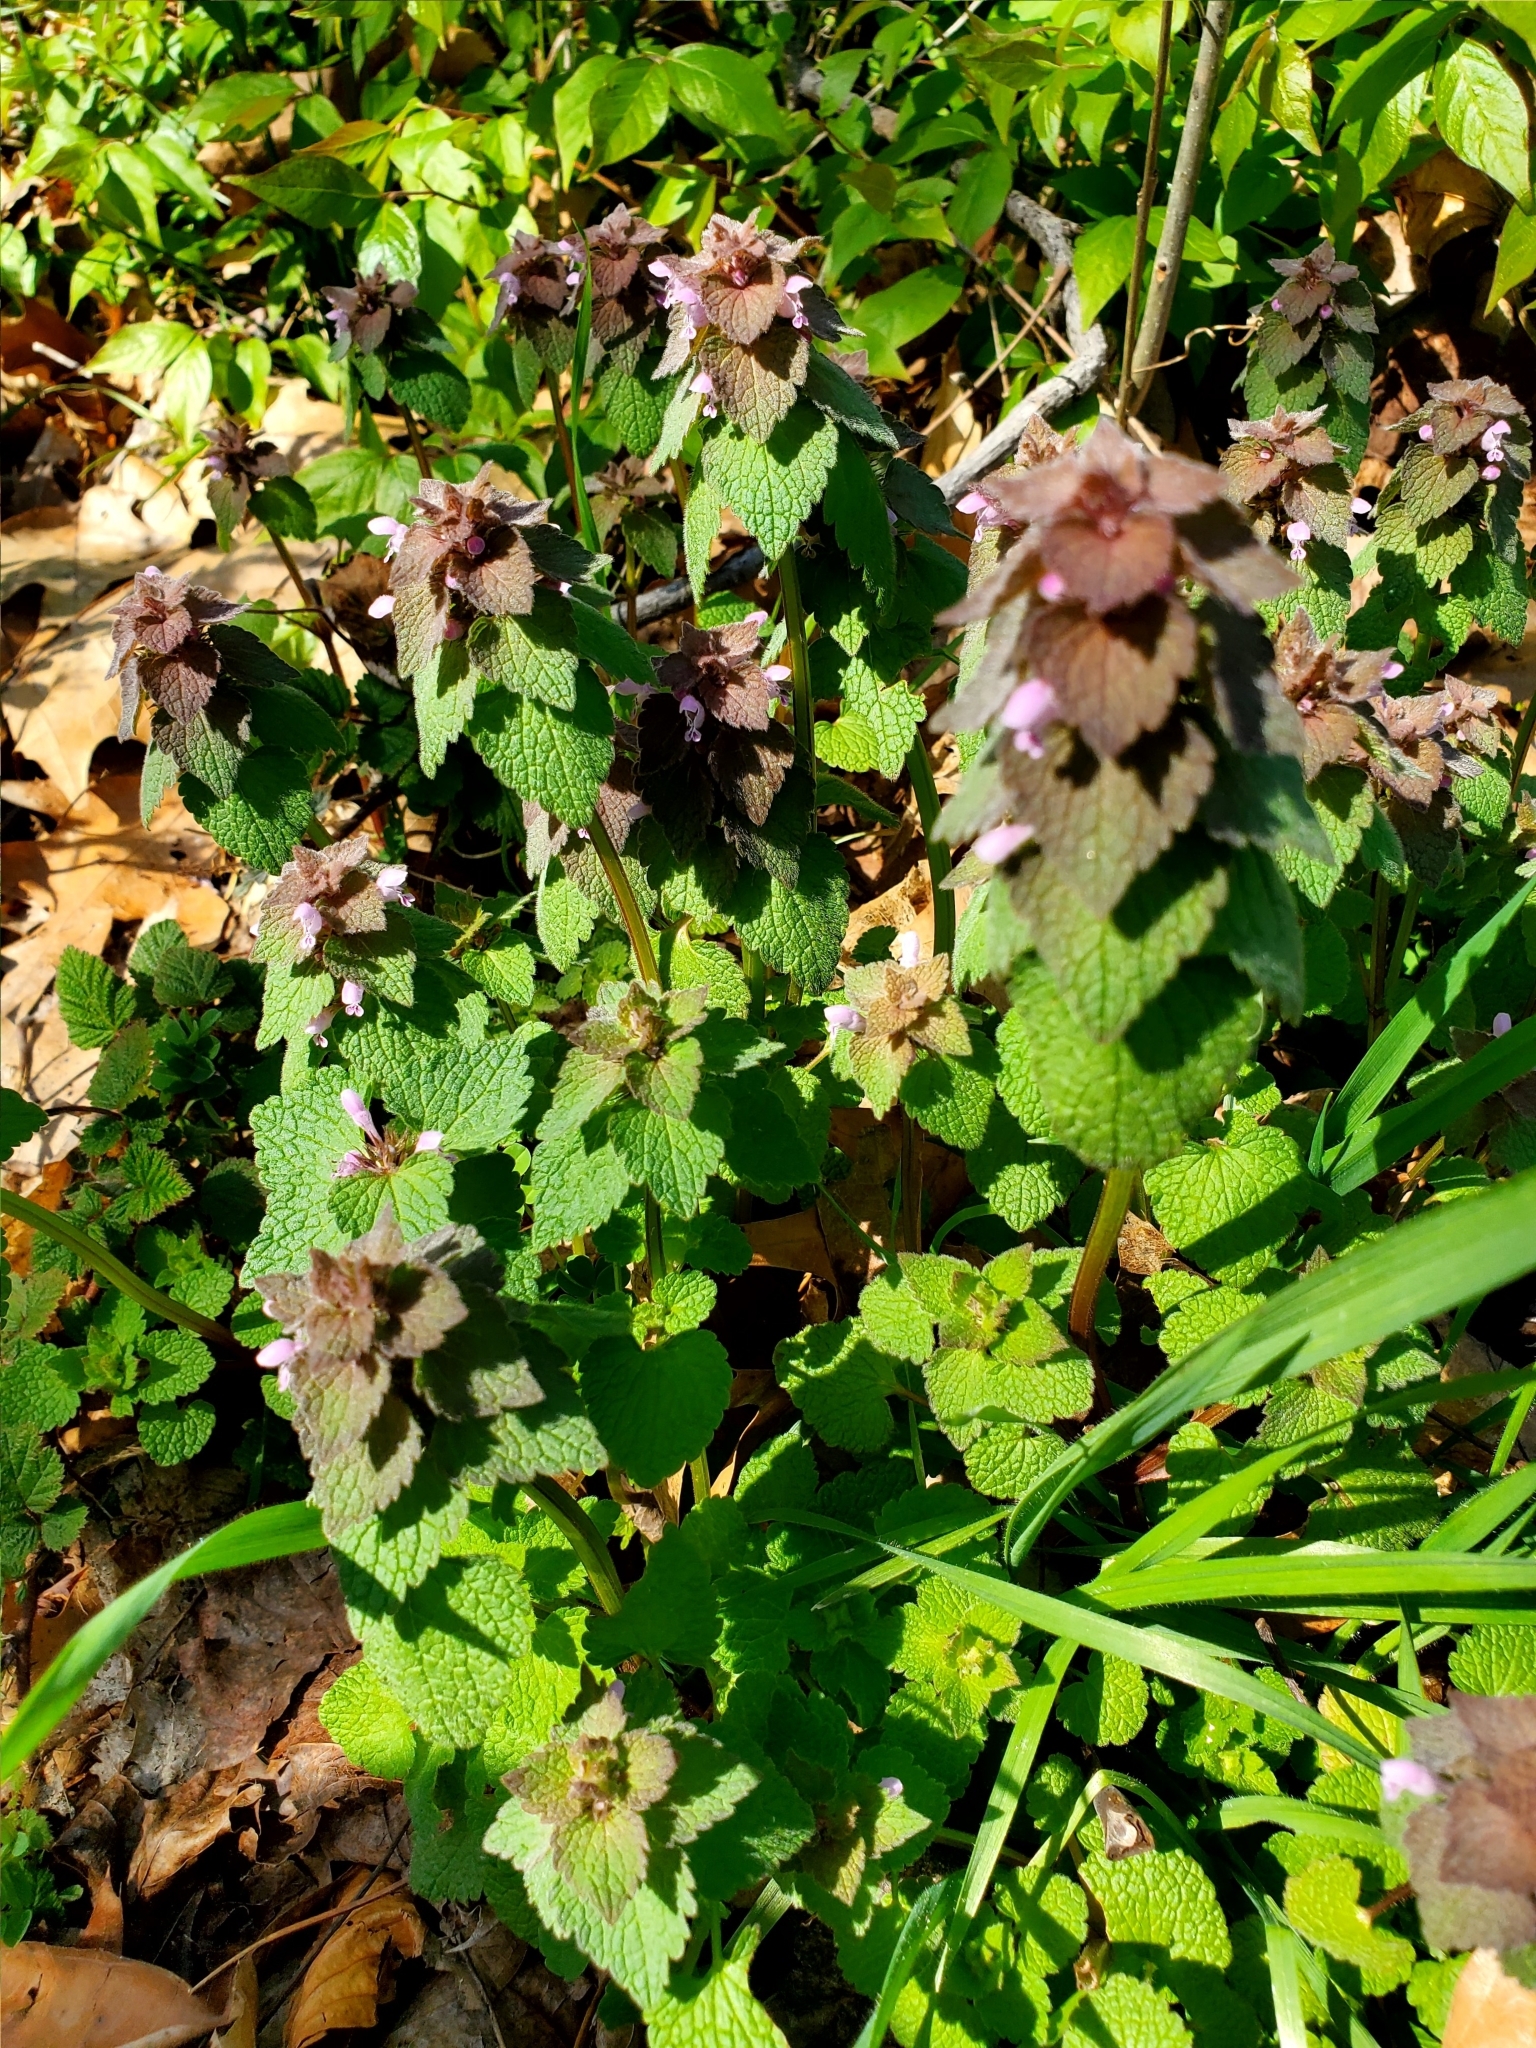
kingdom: Plantae
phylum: Tracheophyta
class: Magnoliopsida
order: Lamiales
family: Lamiaceae
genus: Lamium
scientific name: Lamium purpureum
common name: Red dead-nettle
